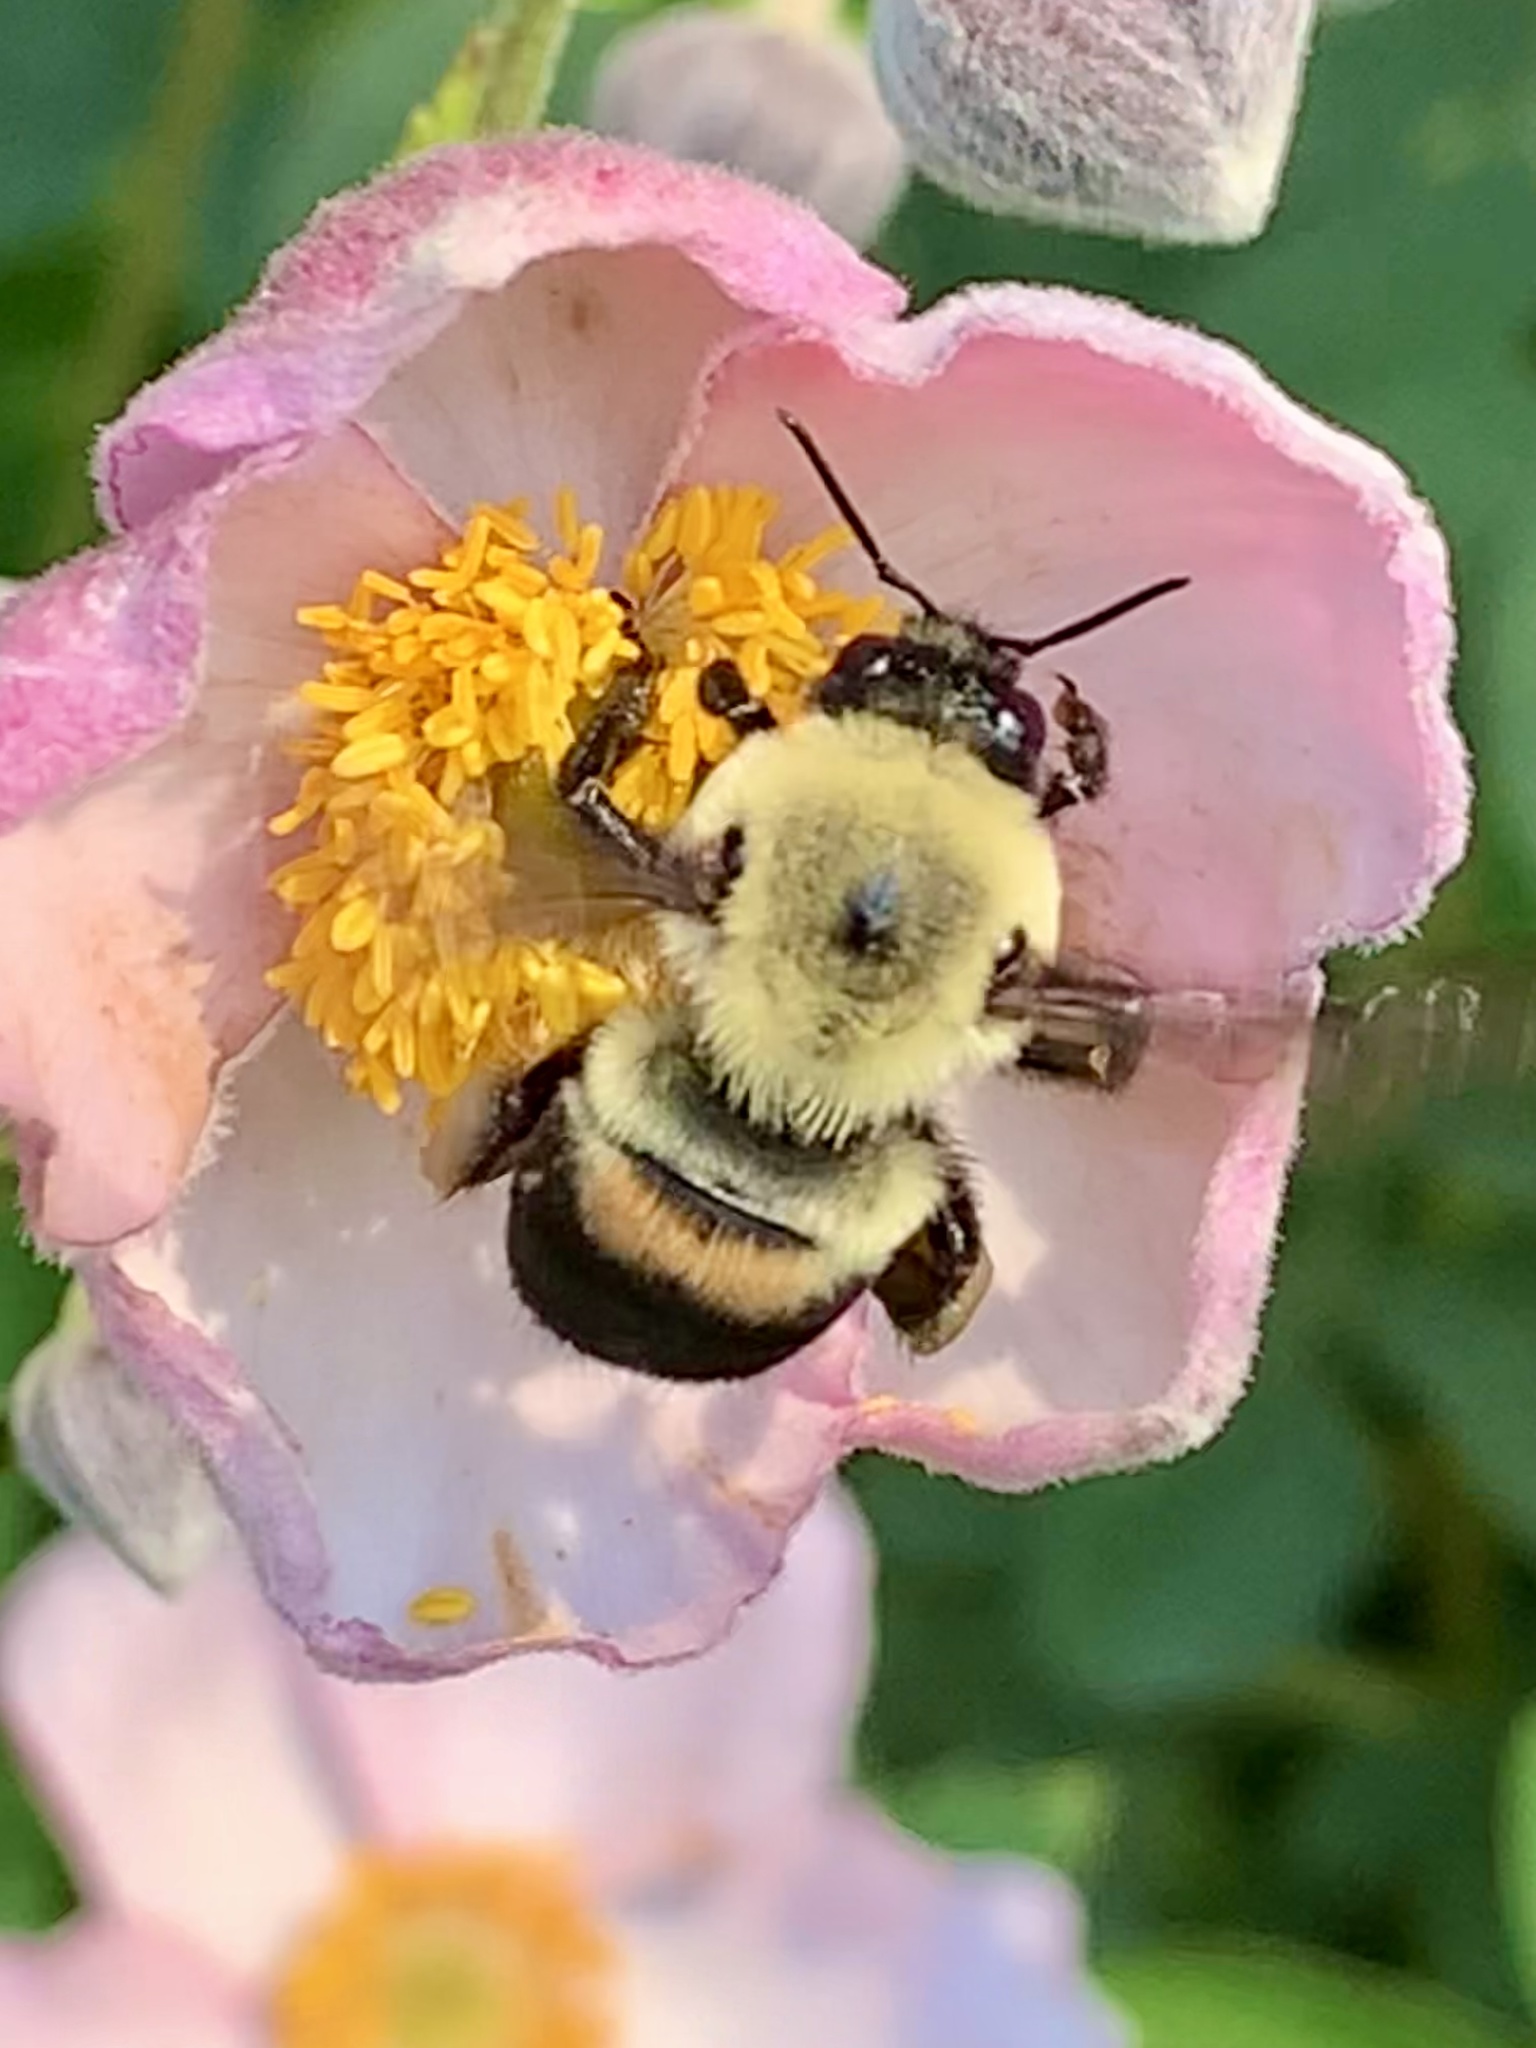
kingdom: Animalia
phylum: Arthropoda
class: Insecta
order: Hymenoptera
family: Apidae
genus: Bombus
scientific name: Bombus griseocollis
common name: Brown-belted bumble bee
